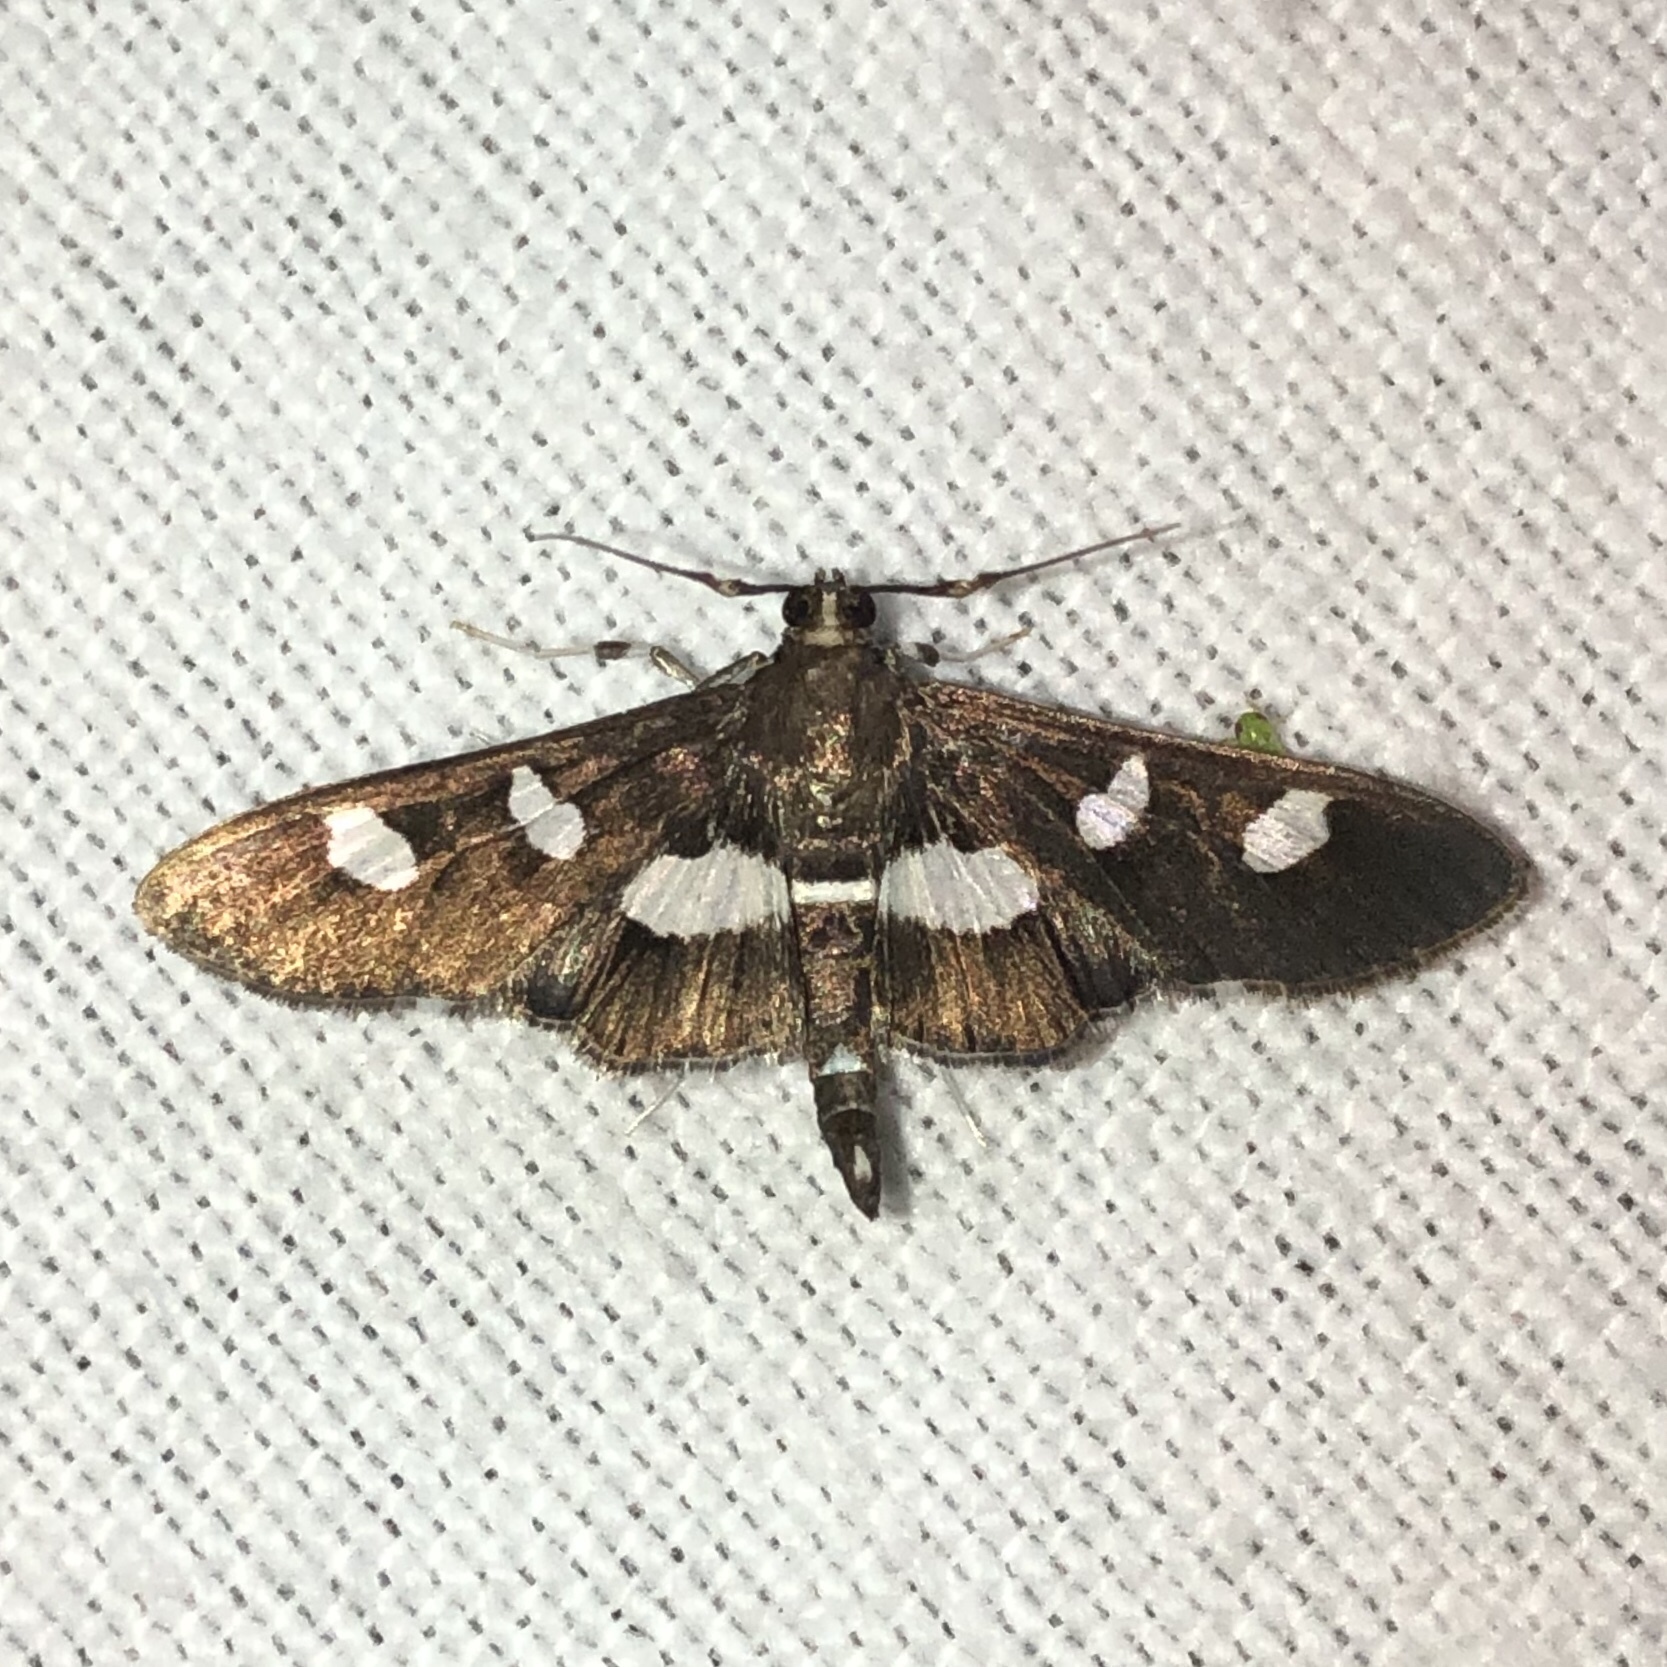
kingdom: Animalia
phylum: Arthropoda
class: Insecta
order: Lepidoptera
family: Crambidae
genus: Desmia
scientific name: Desmia funeralis
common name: Grape leaf folder moth
